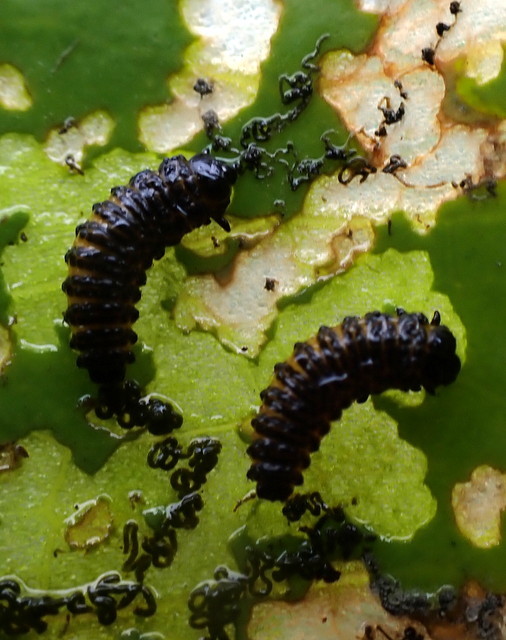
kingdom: Animalia
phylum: Arthropoda
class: Insecta
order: Coleoptera
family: Chrysomelidae
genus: Galerucella
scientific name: Galerucella nymphaeae
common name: Leaf beetle
